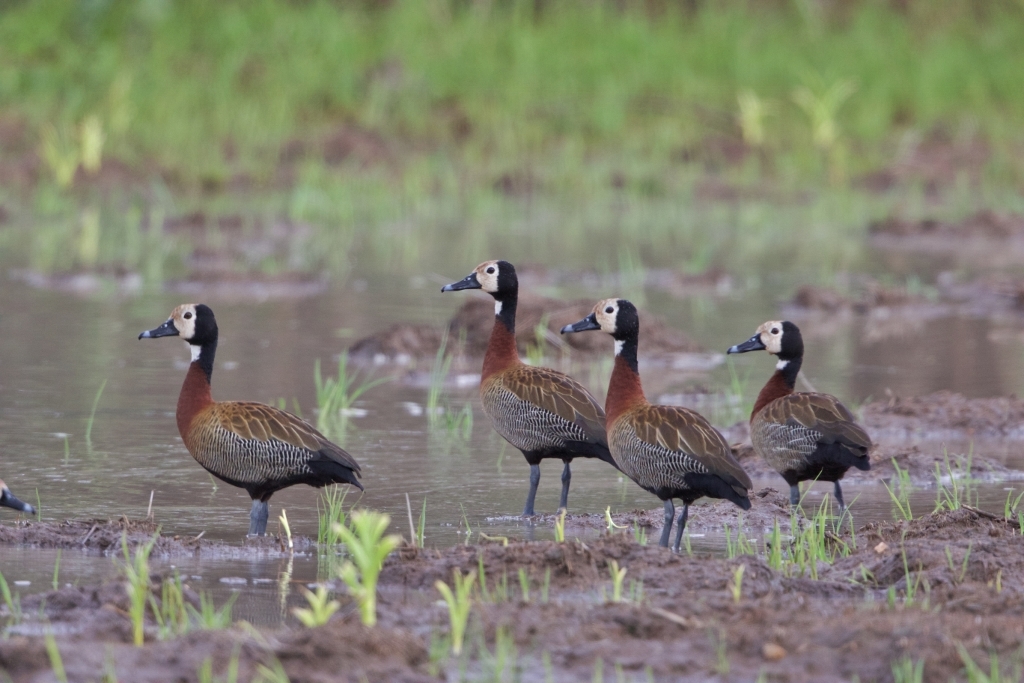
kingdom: Animalia
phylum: Chordata
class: Aves
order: Anseriformes
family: Anatidae
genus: Dendrocygna
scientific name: Dendrocygna viduata
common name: White-faced whistling duck
